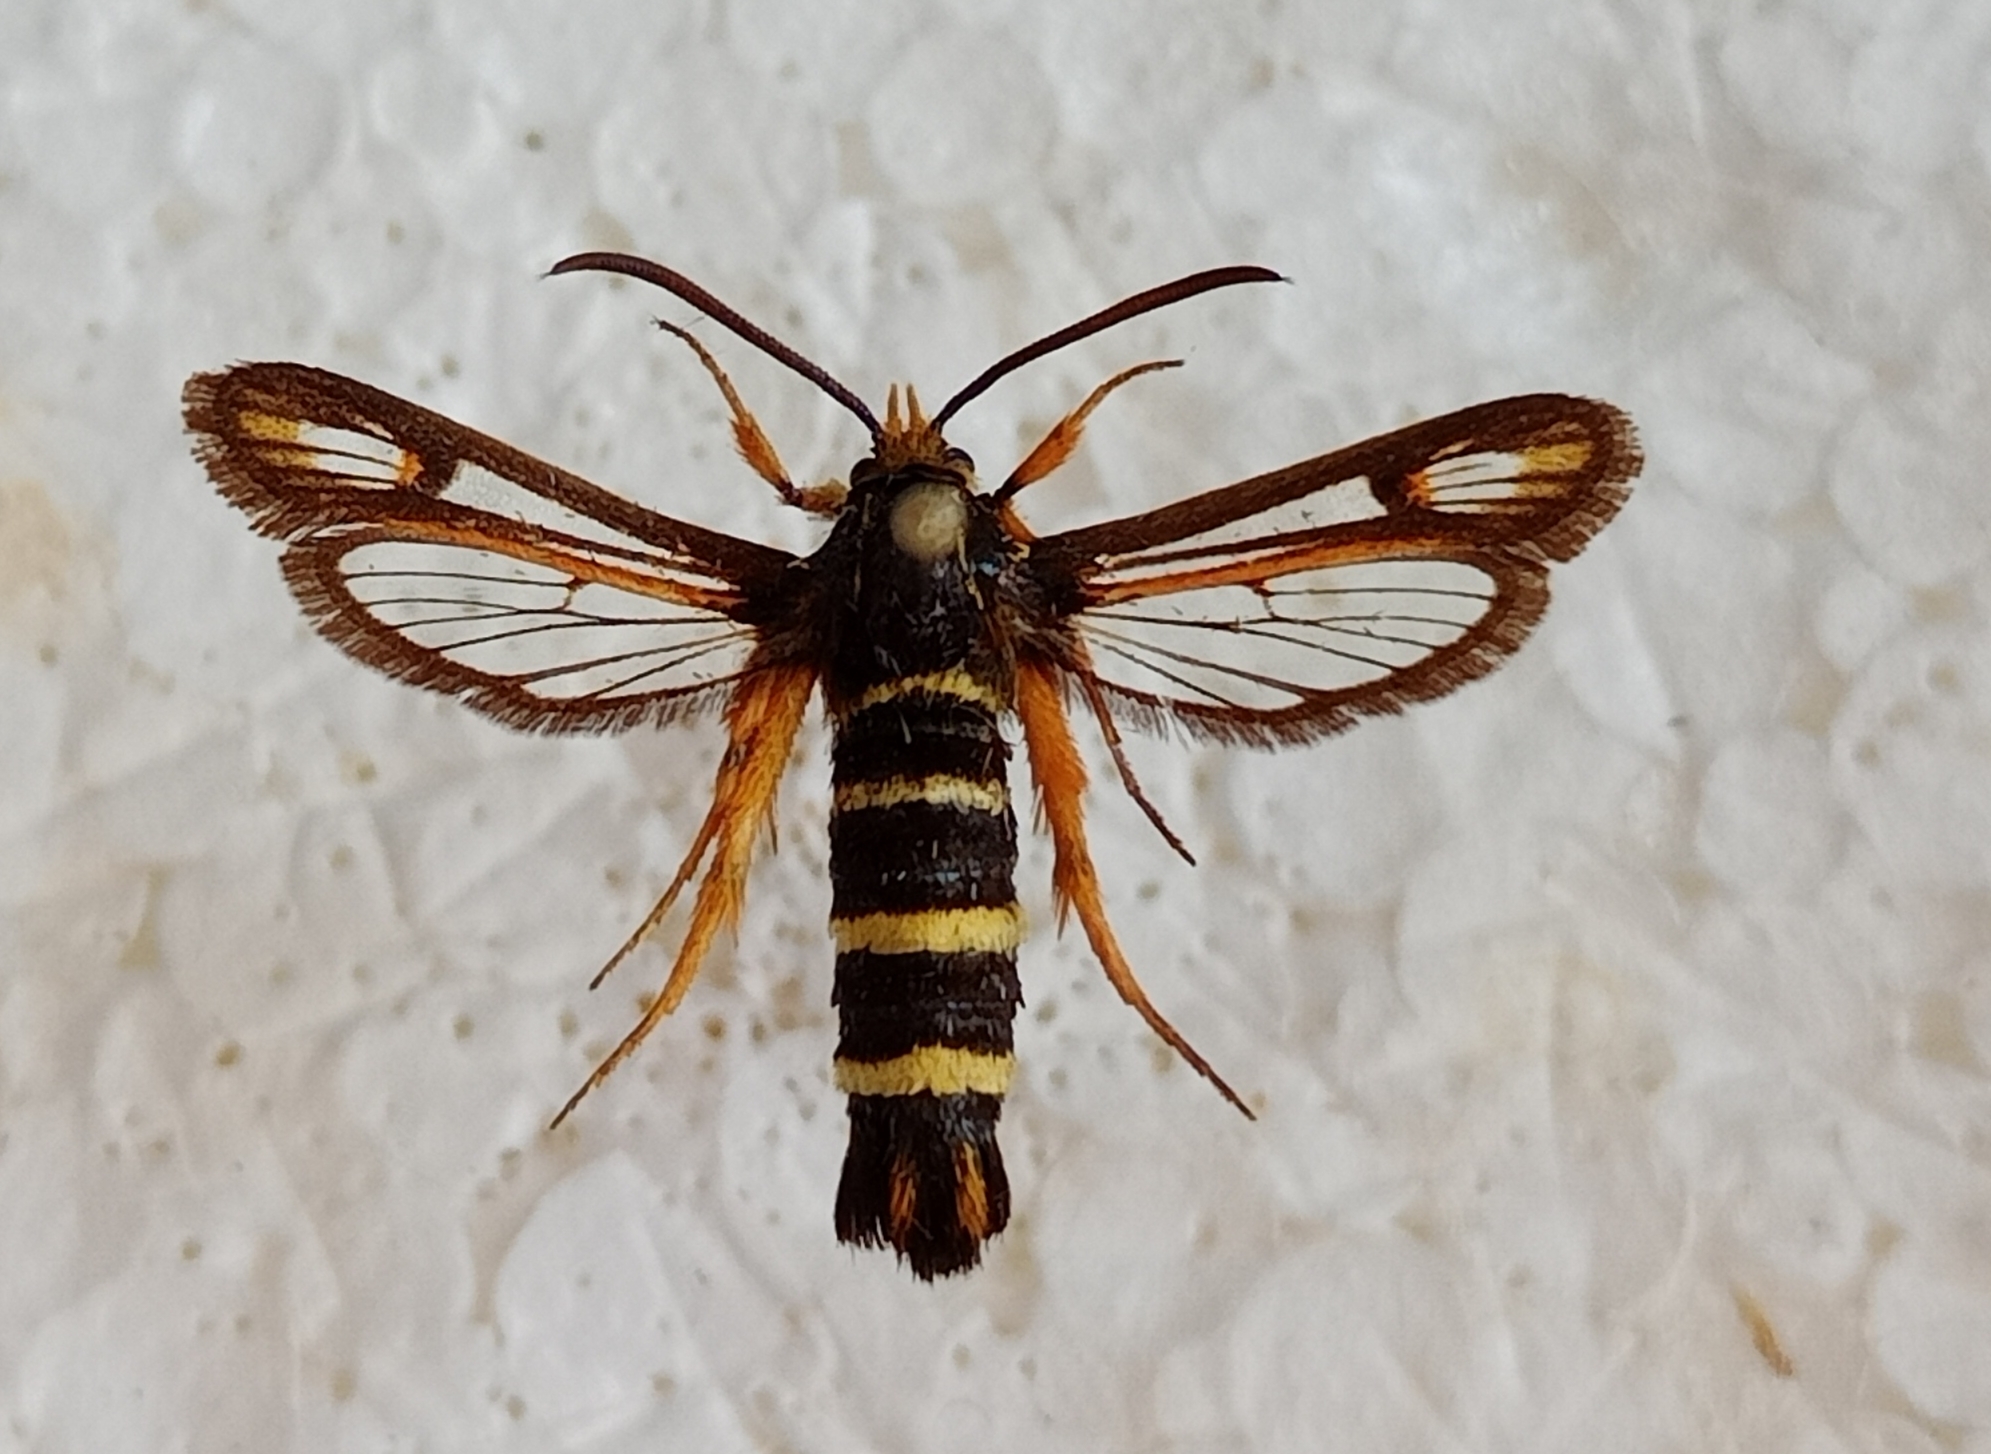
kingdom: Animalia
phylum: Arthropoda
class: Insecta
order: Lepidoptera
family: Sesiidae
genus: Bembecia
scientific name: Bembecia megillaeformis
